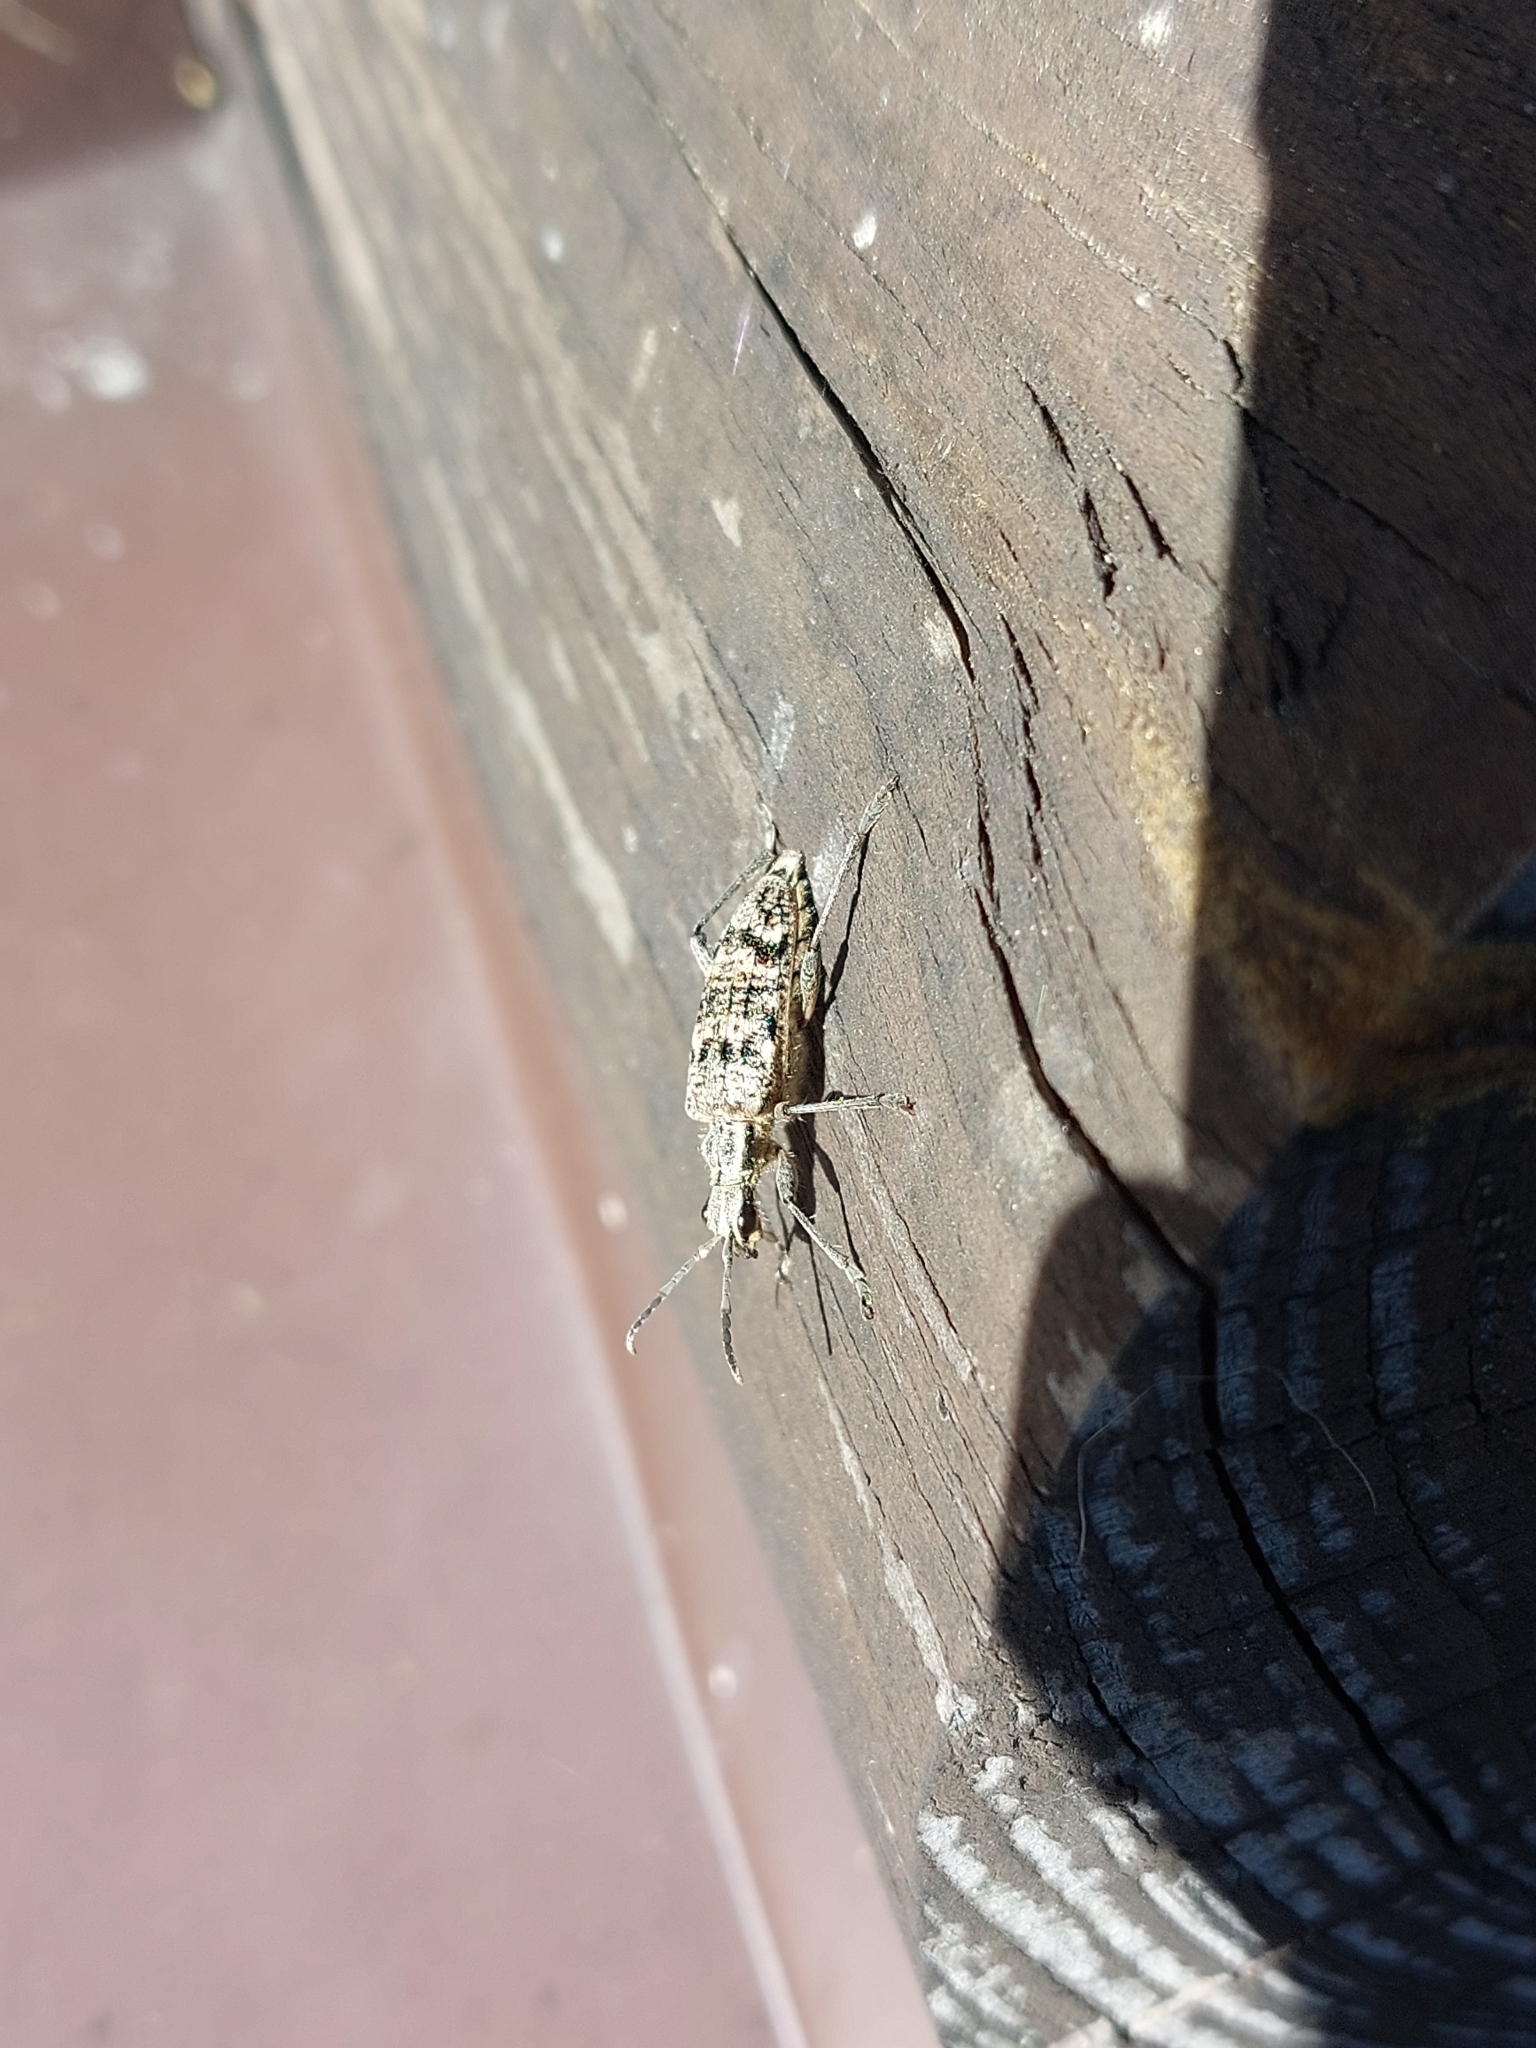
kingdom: Animalia
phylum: Arthropoda
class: Insecta
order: Coleoptera
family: Cerambycidae
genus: Rhagium
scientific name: Rhagium inquisitor
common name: Ribbed pine borer
